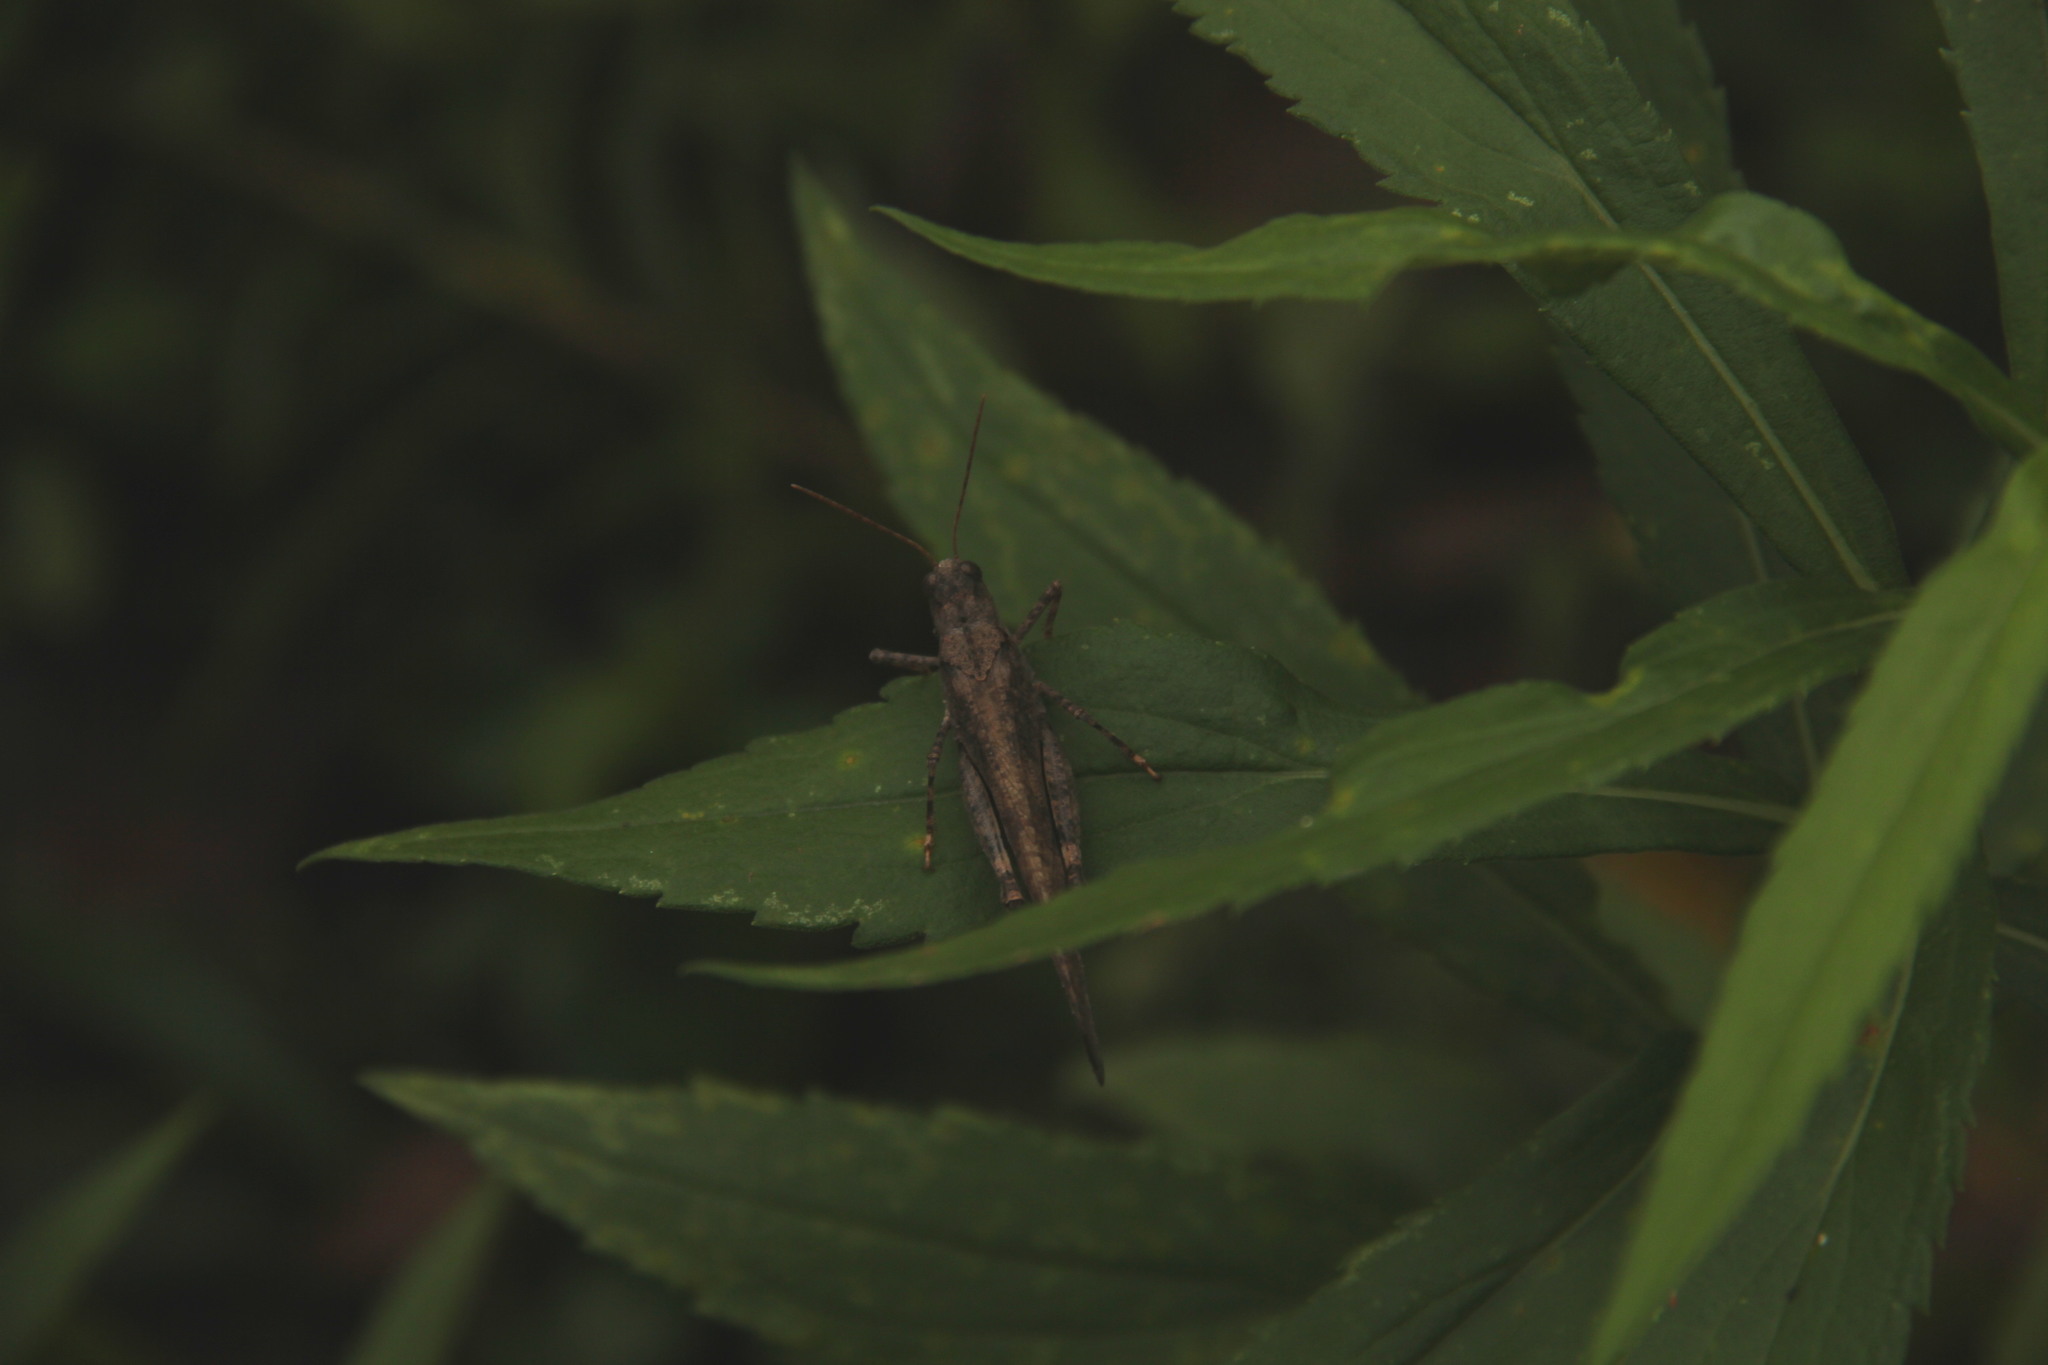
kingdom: Animalia
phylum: Arthropoda
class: Insecta
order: Orthoptera
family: Acrididae
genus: Dissosteira
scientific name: Dissosteira carolina
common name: Carolina grasshopper
